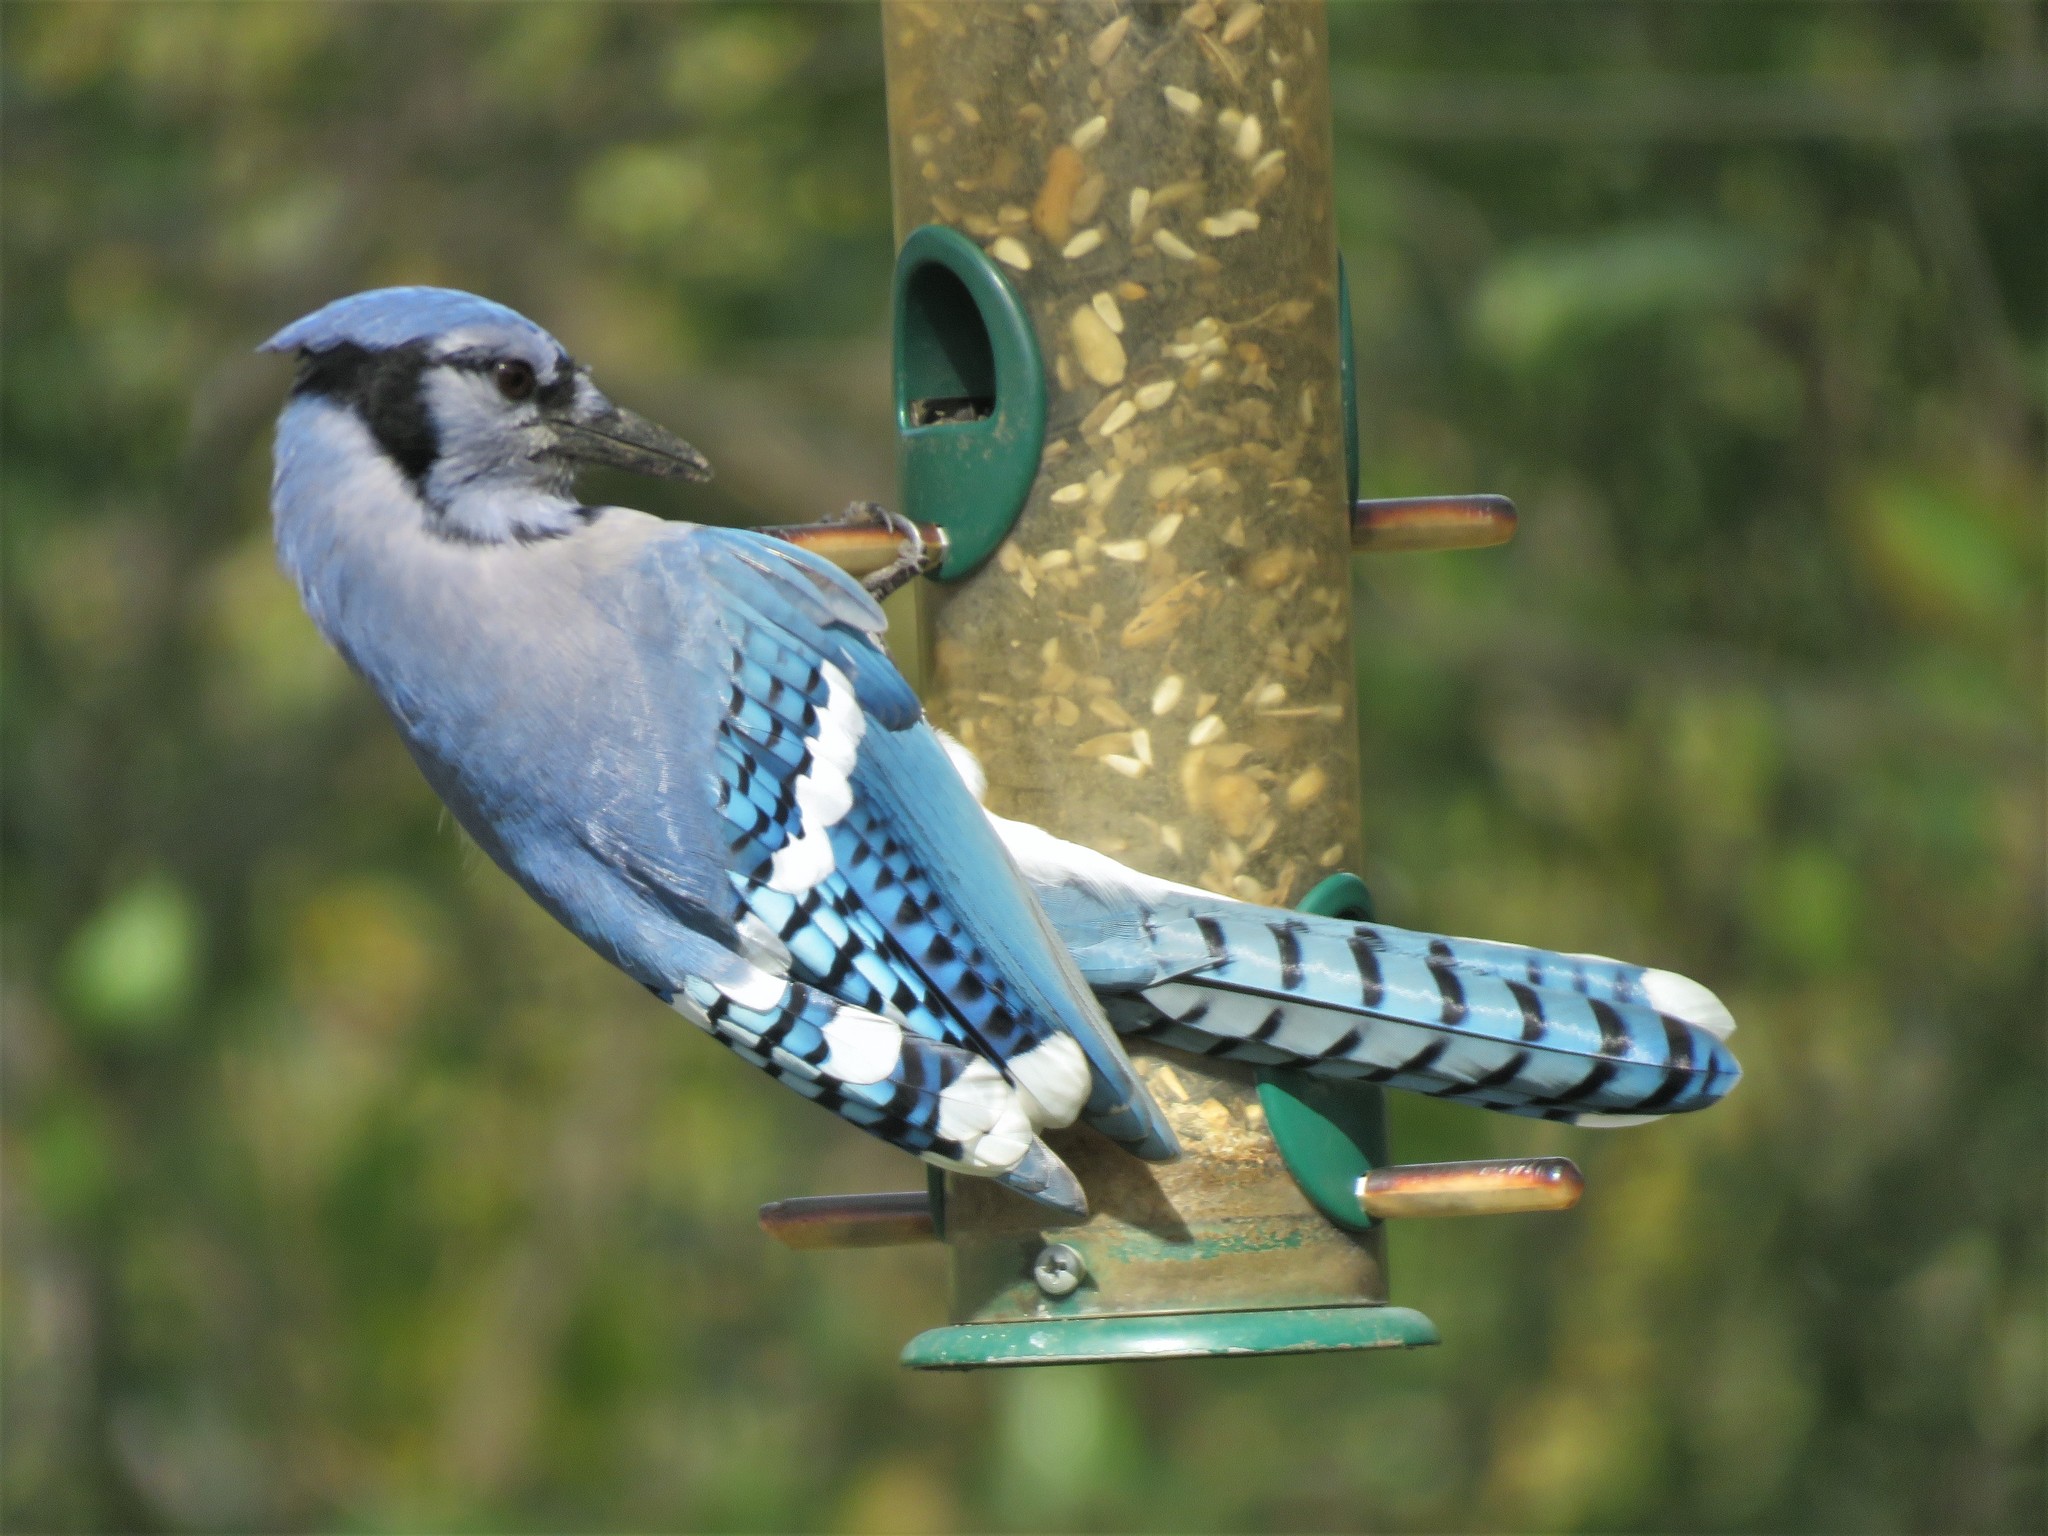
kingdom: Animalia
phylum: Chordata
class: Aves
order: Passeriformes
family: Corvidae
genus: Cyanocitta
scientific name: Cyanocitta cristata
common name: Blue jay
